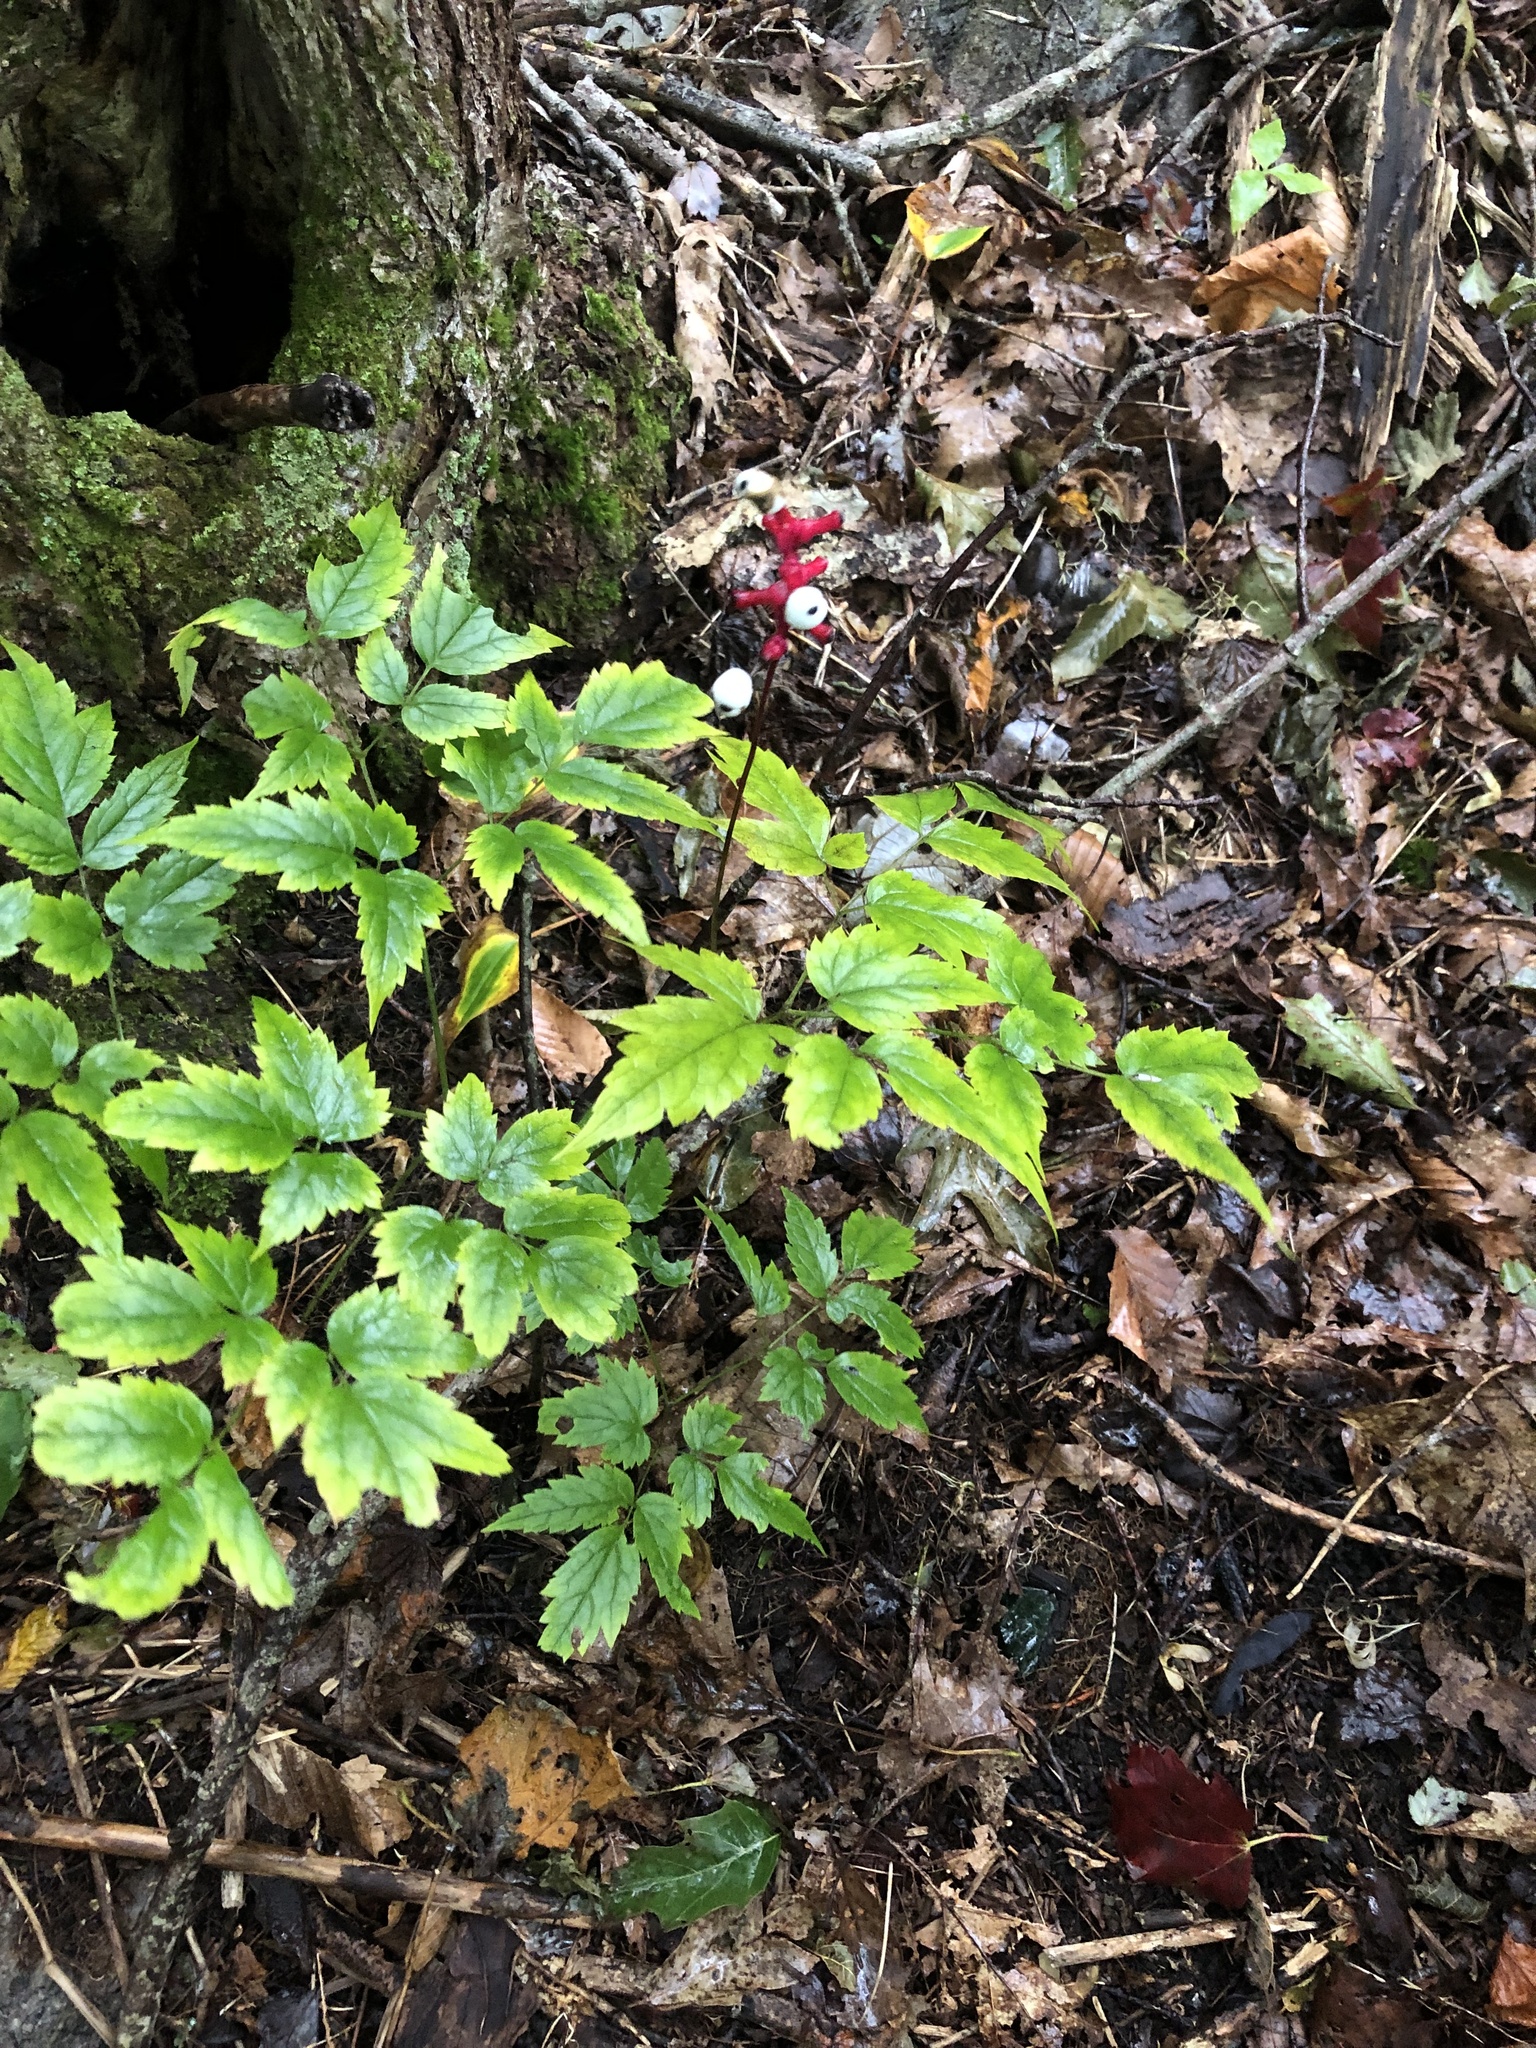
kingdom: Plantae
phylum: Tracheophyta
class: Magnoliopsida
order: Ranunculales
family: Ranunculaceae
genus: Actaea
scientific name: Actaea pachypoda
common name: Doll's-eyes
